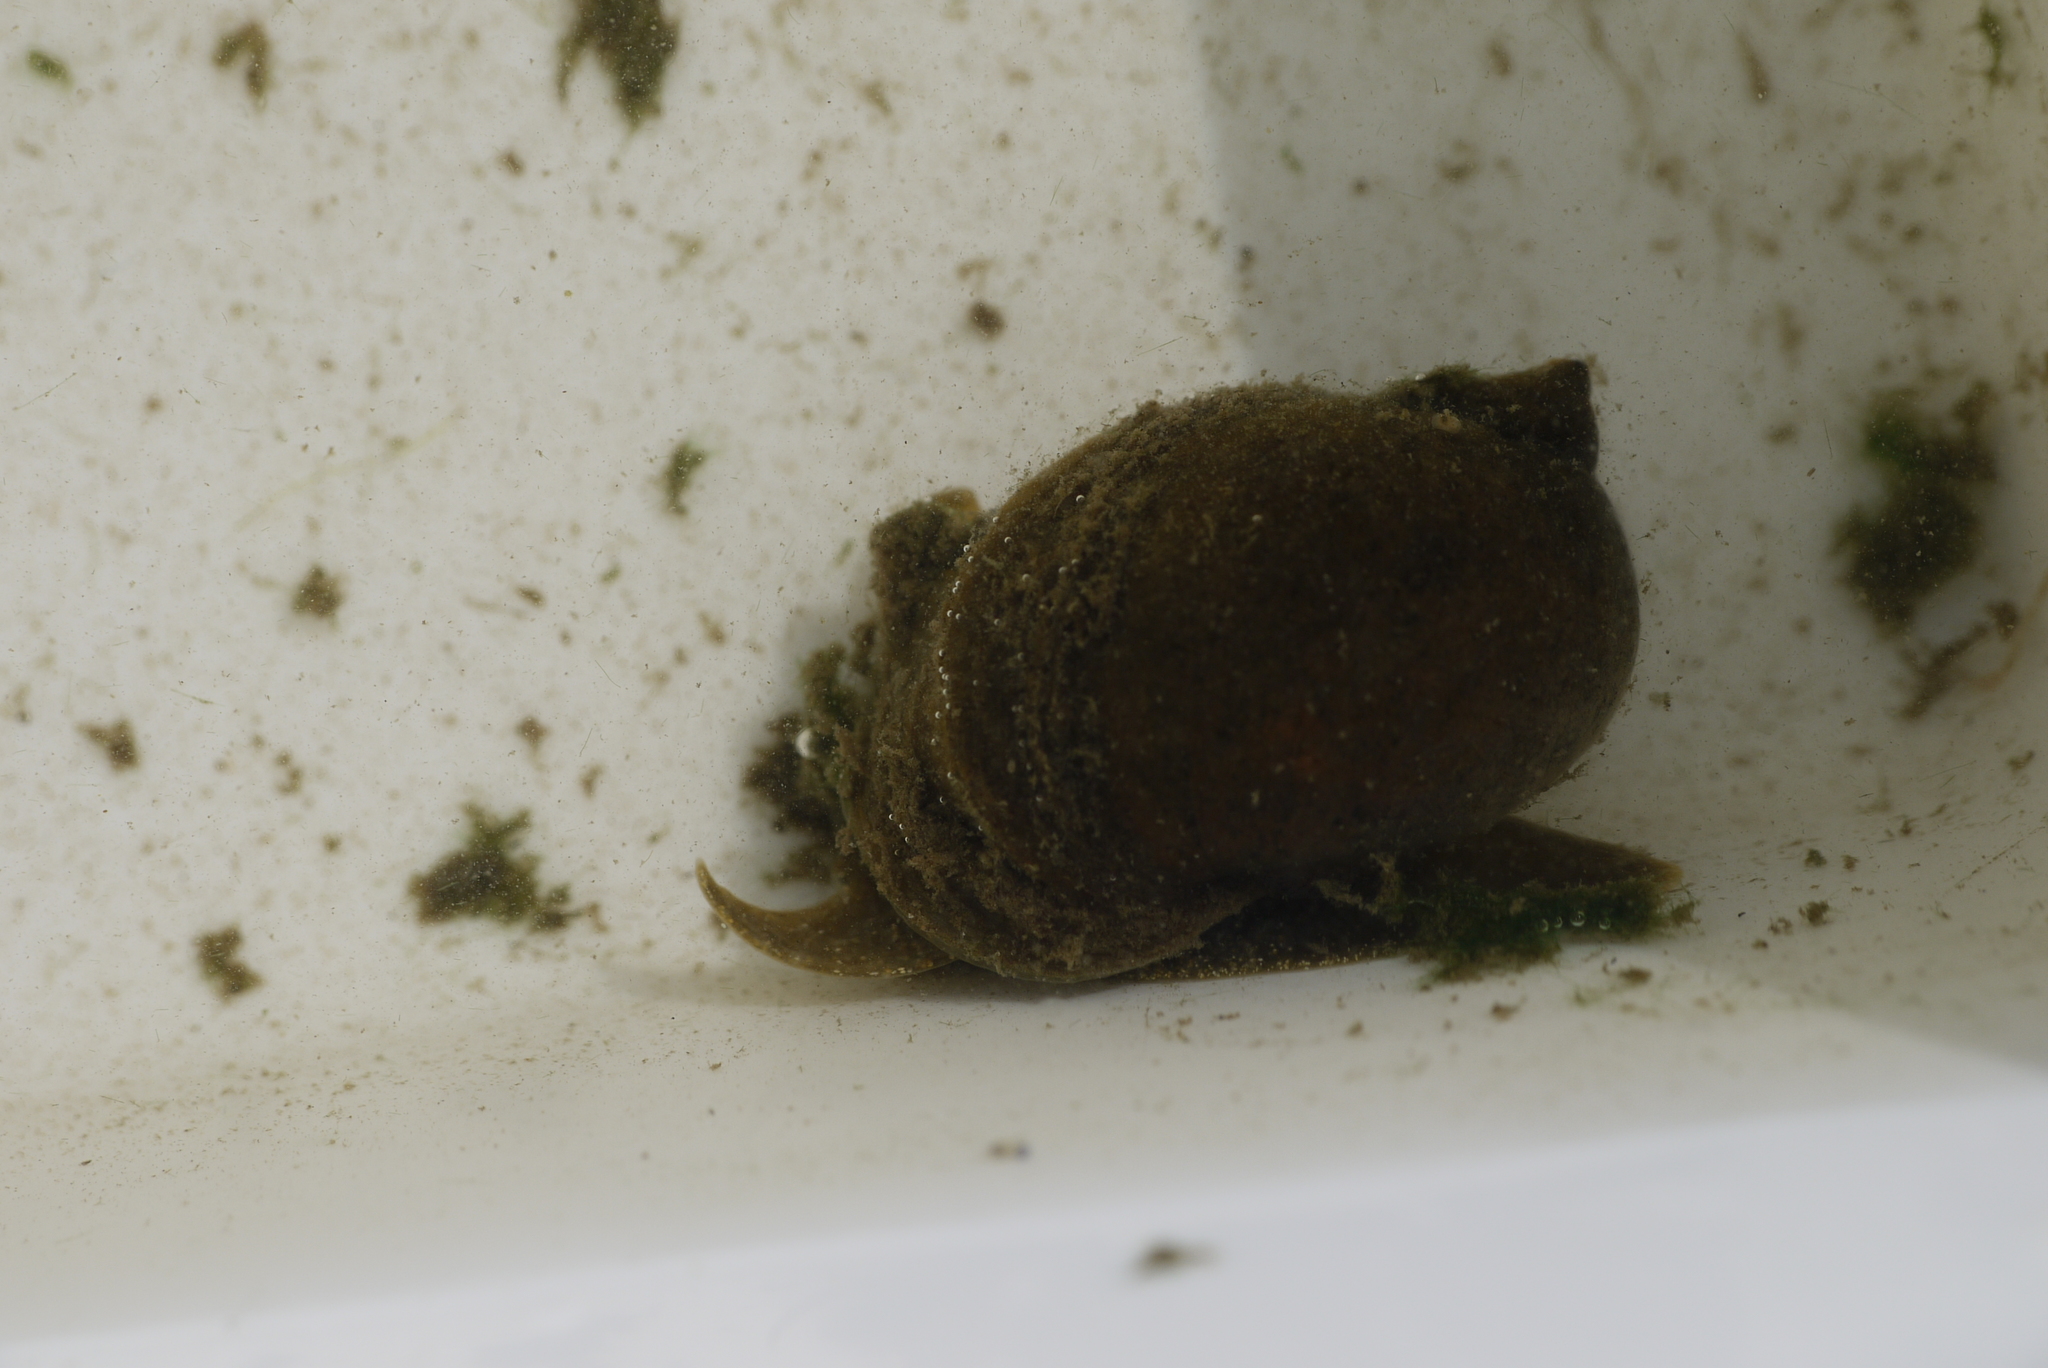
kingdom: Animalia
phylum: Mollusca
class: Gastropoda
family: Lymnaeidae
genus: Radix
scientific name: Radix auricularia
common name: Ear pond snail
